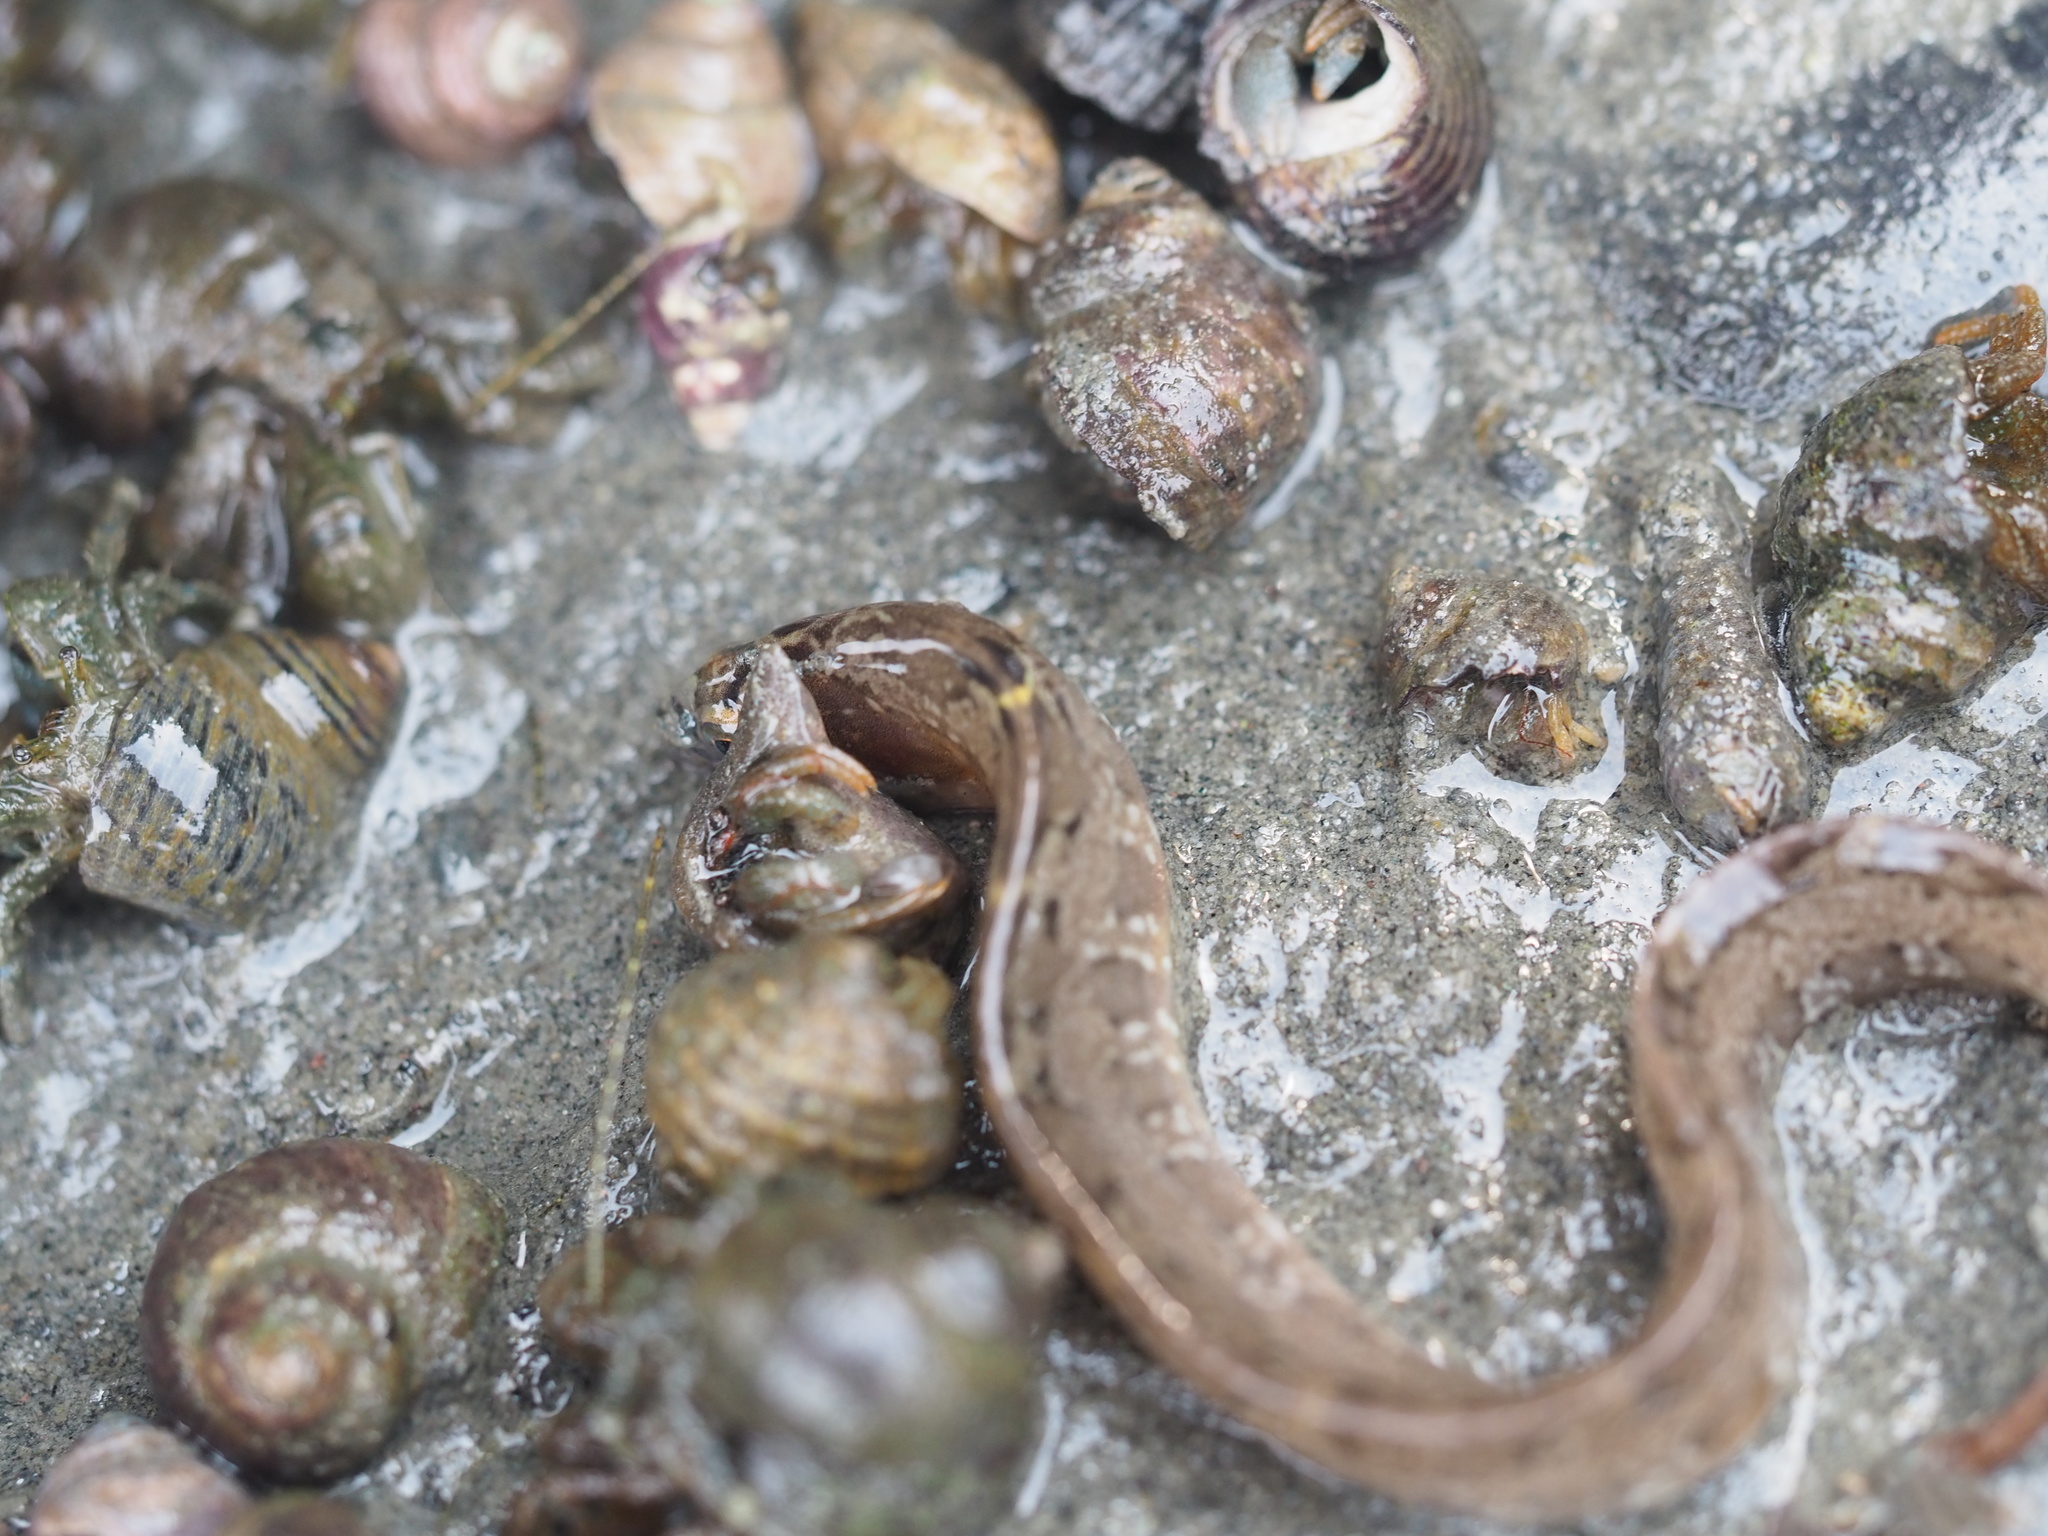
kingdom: Animalia
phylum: Chordata
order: Perciformes
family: Pholidae
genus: Pholis
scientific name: Pholis ornata
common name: Saddleback gunnel
